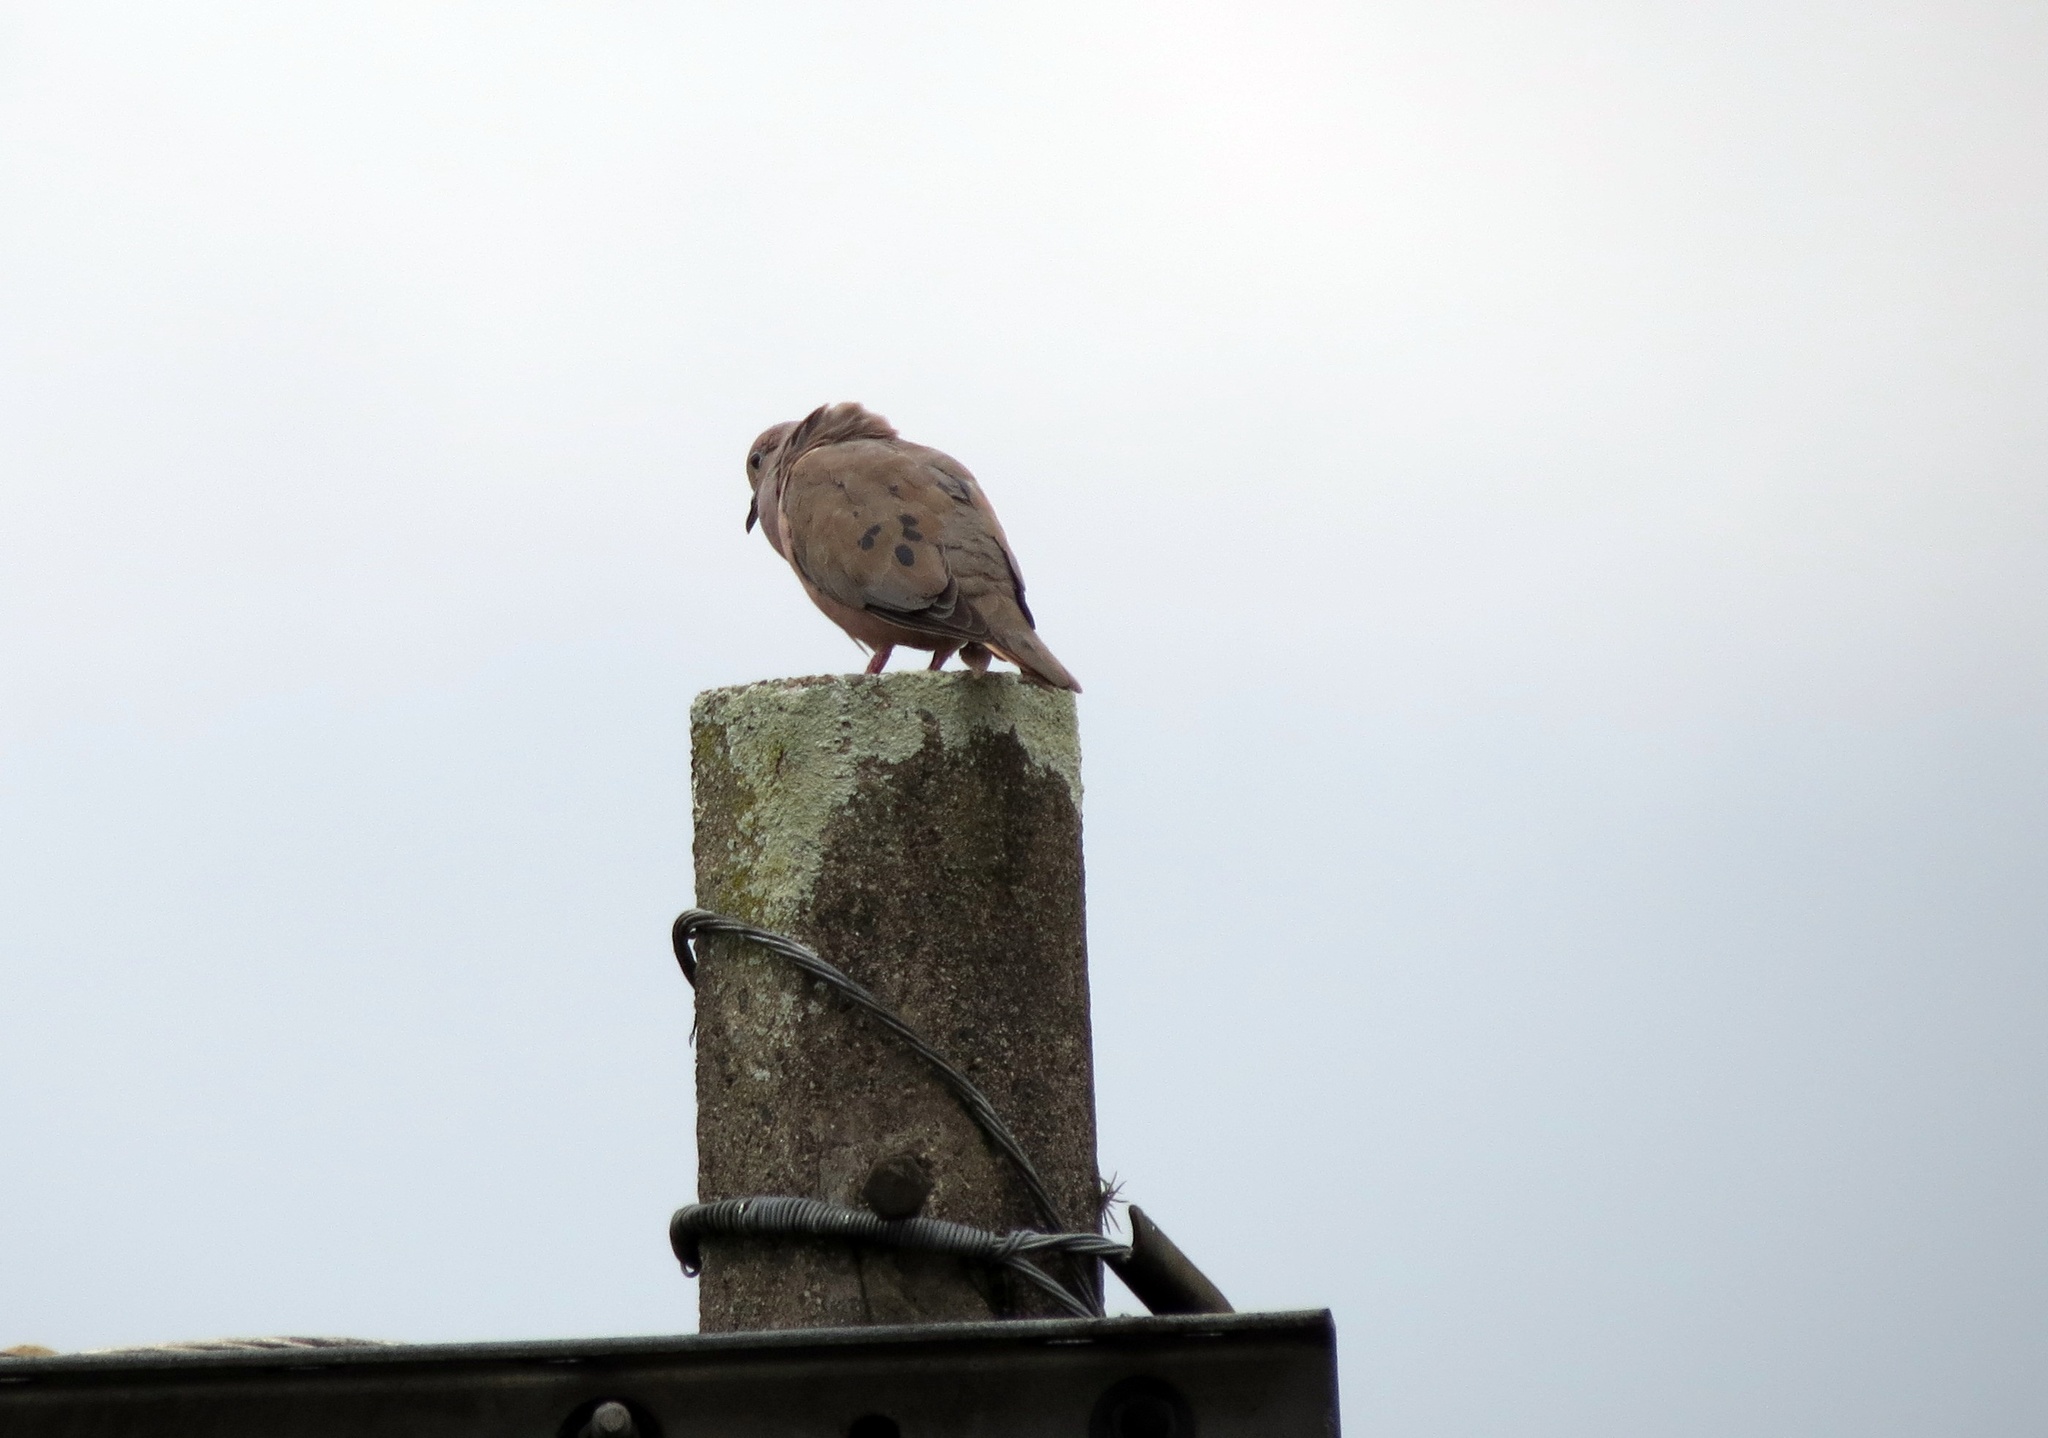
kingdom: Animalia
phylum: Chordata
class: Aves
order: Columbiformes
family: Columbidae
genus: Zenaida
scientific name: Zenaida auriculata
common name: Eared dove
